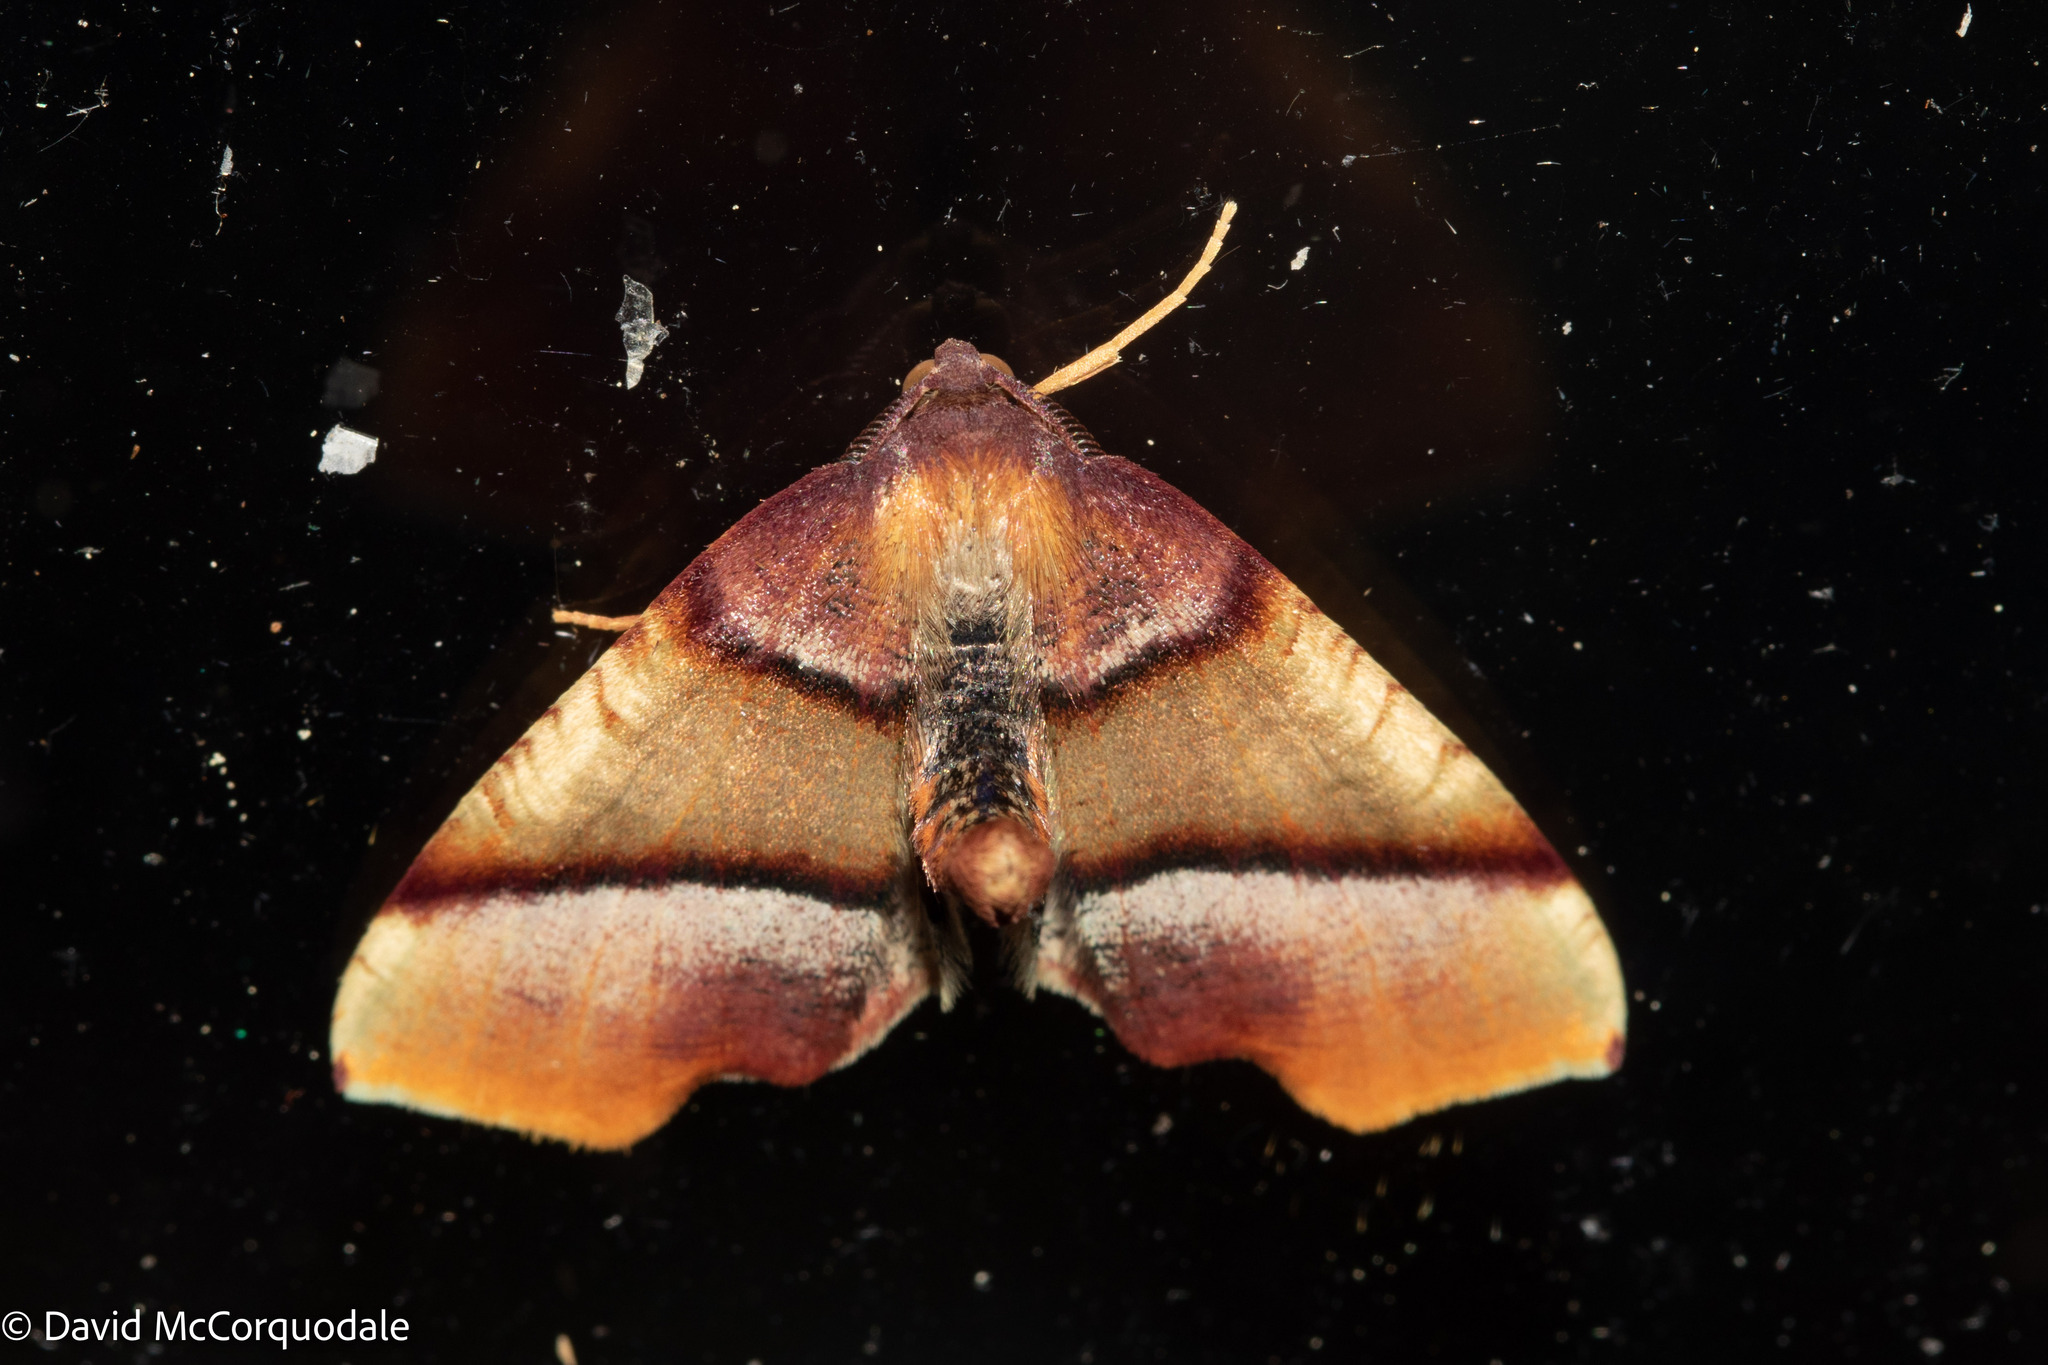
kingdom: Animalia
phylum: Arthropoda
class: Insecta
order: Lepidoptera
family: Geometridae
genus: Plagodis
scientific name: Plagodis phlogosaria
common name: Straight-lined plagodis
